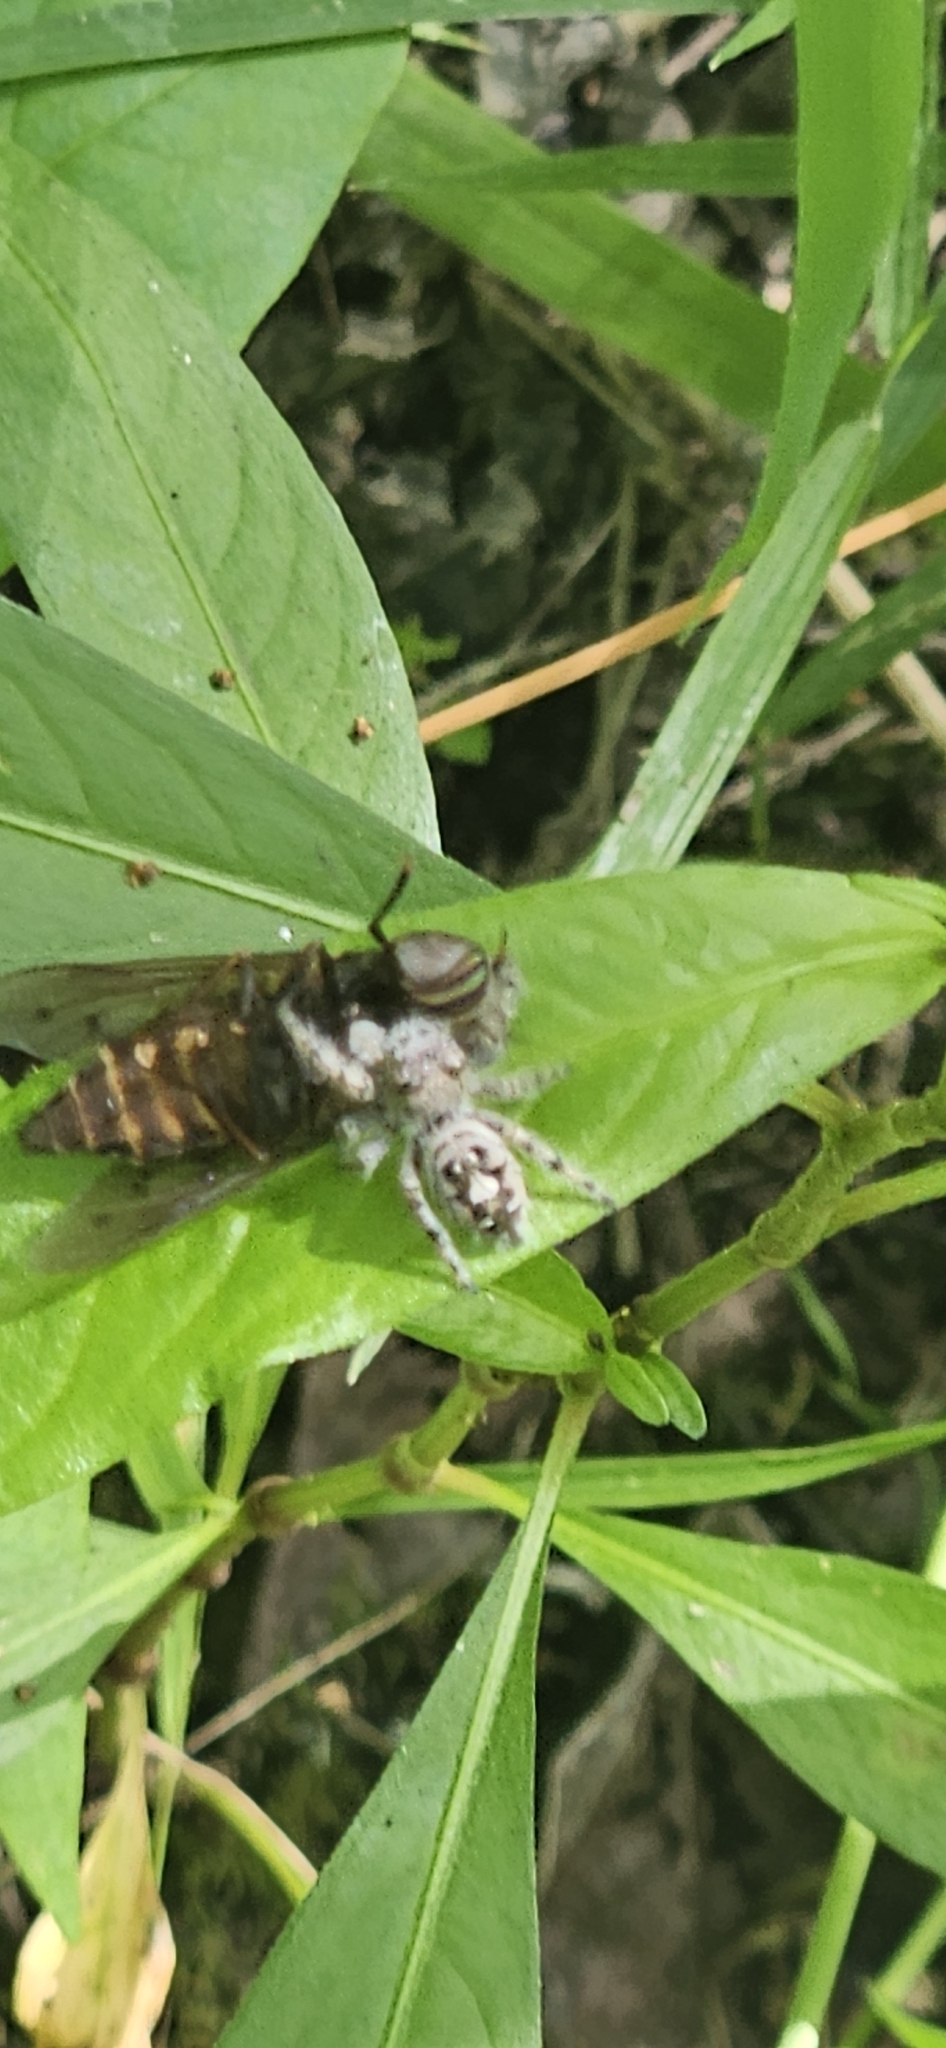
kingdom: Animalia
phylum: Arthropoda
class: Arachnida
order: Araneae
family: Salticidae
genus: Phidippus
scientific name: Phidippus putnami
